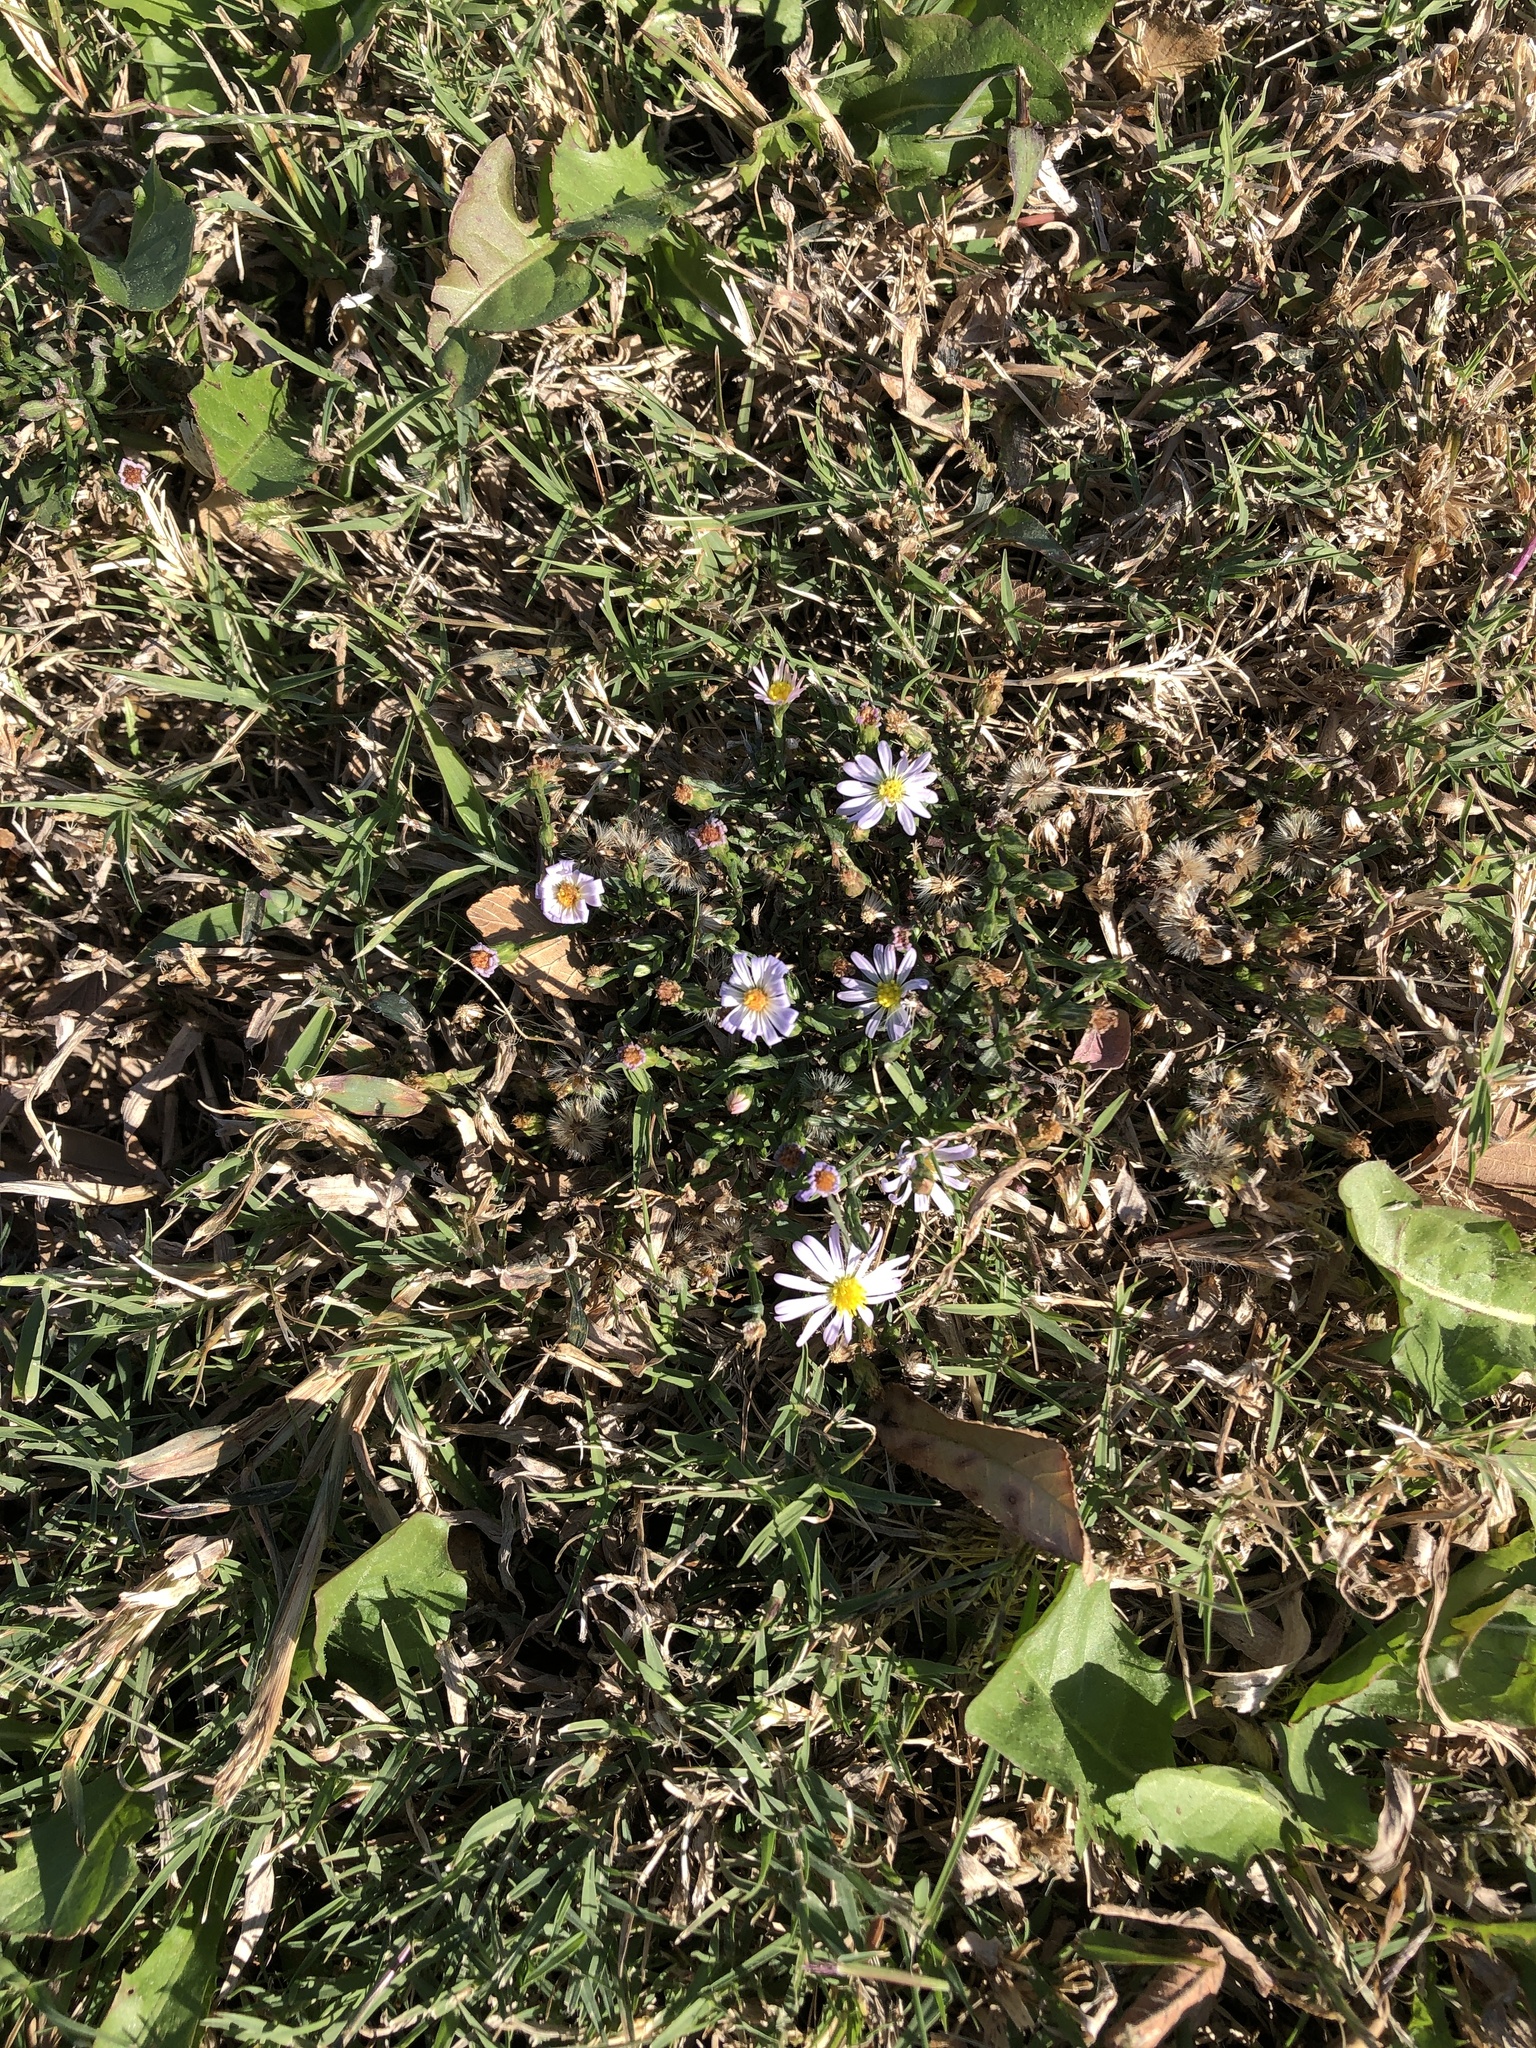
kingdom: Plantae
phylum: Tracheophyta
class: Magnoliopsida
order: Asterales
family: Asteraceae
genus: Symphyotrichum
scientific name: Symphyotrichum divaricatum
